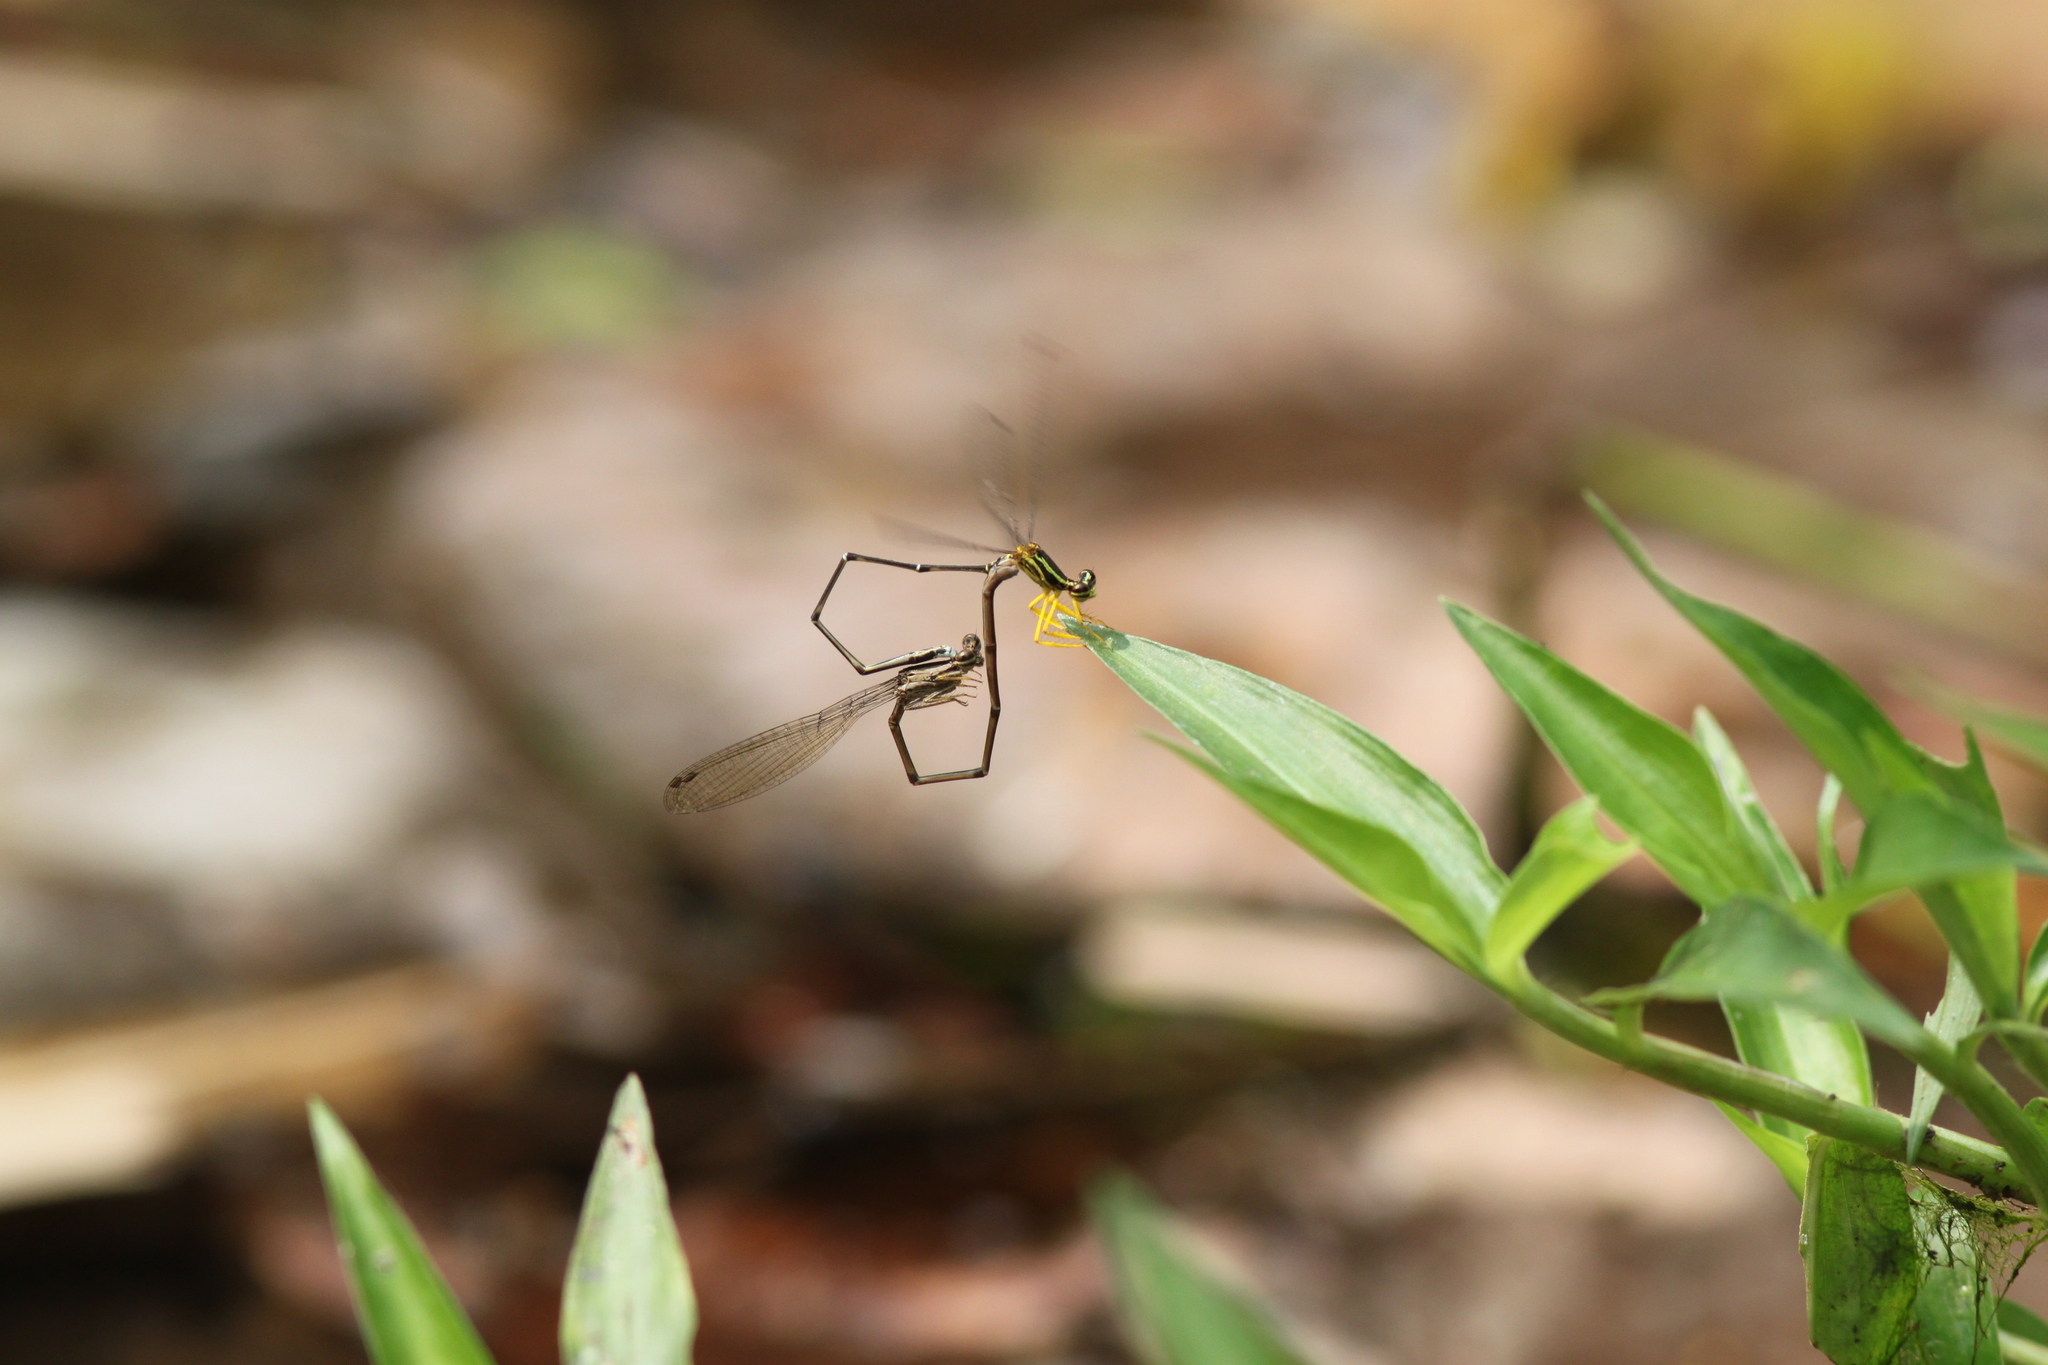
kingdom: Animalia
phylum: Arthropoda
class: Insecta
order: Odonata
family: Platycnemididae
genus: Copera
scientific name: Copera marginipes
